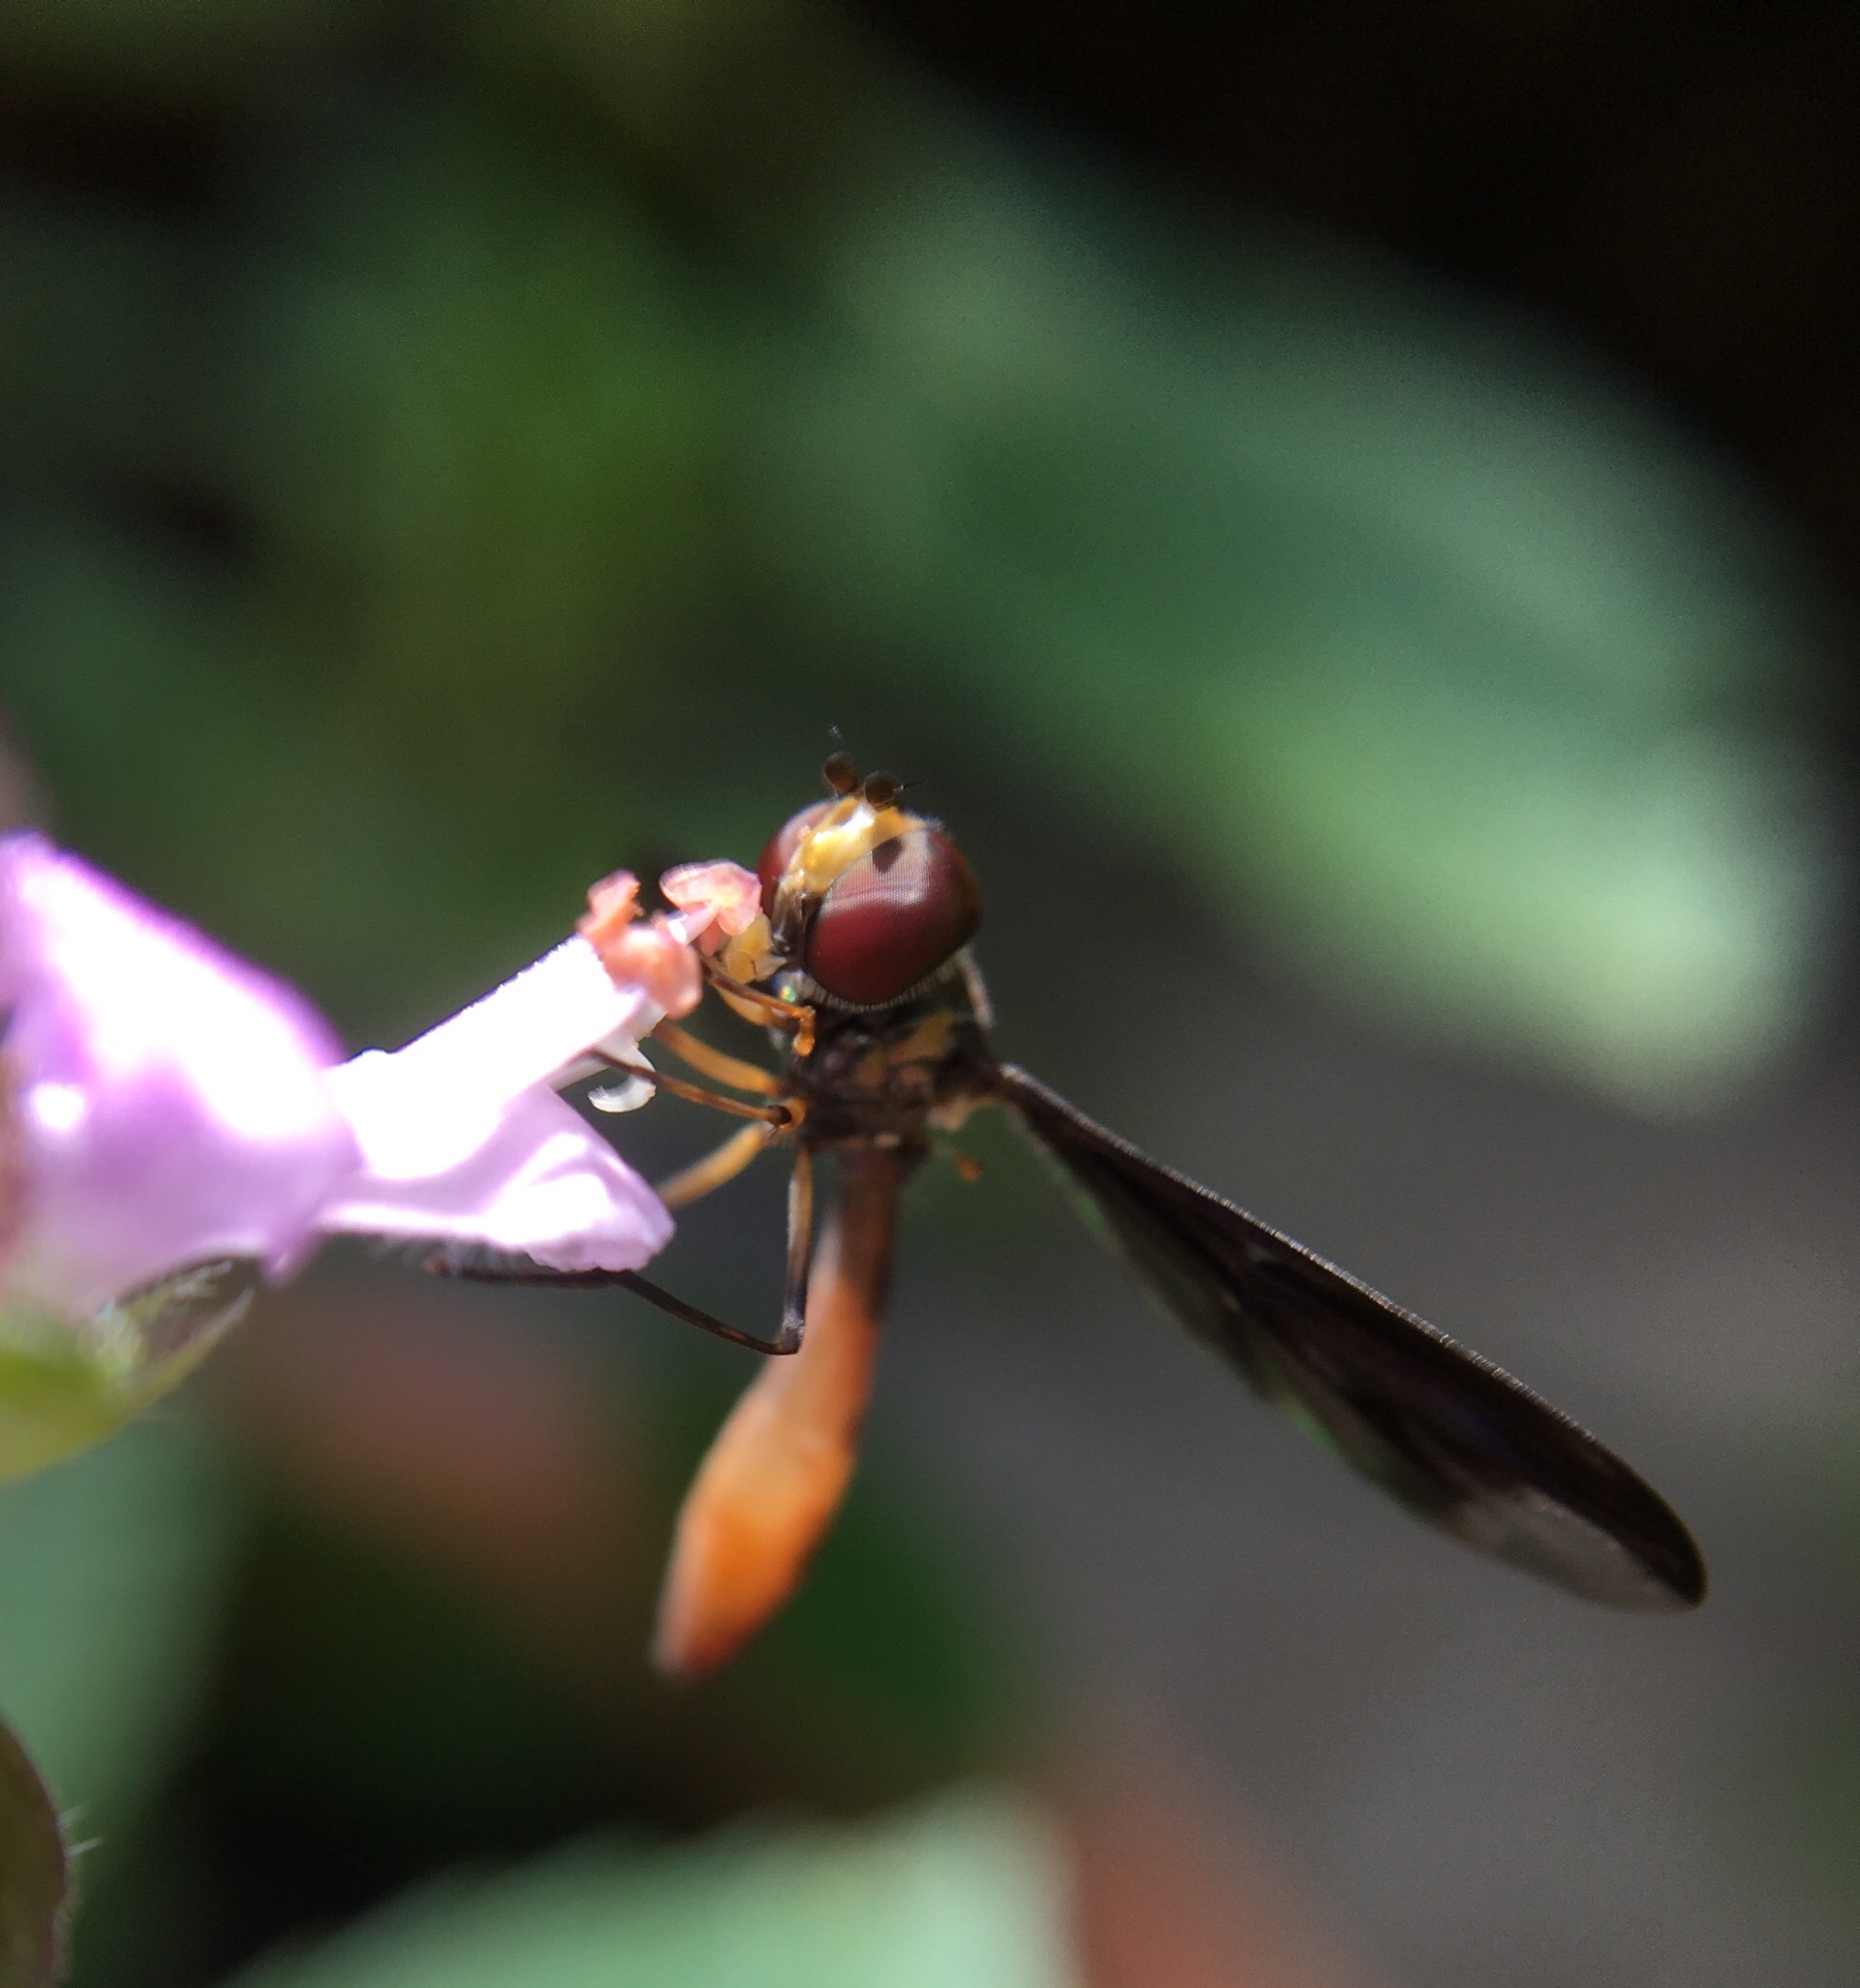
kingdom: Animalia
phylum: Arthropoda
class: Insecta
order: Diptera
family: Syrphidae
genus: Ocyptamus
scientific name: Ocyptamus fuscipennis
